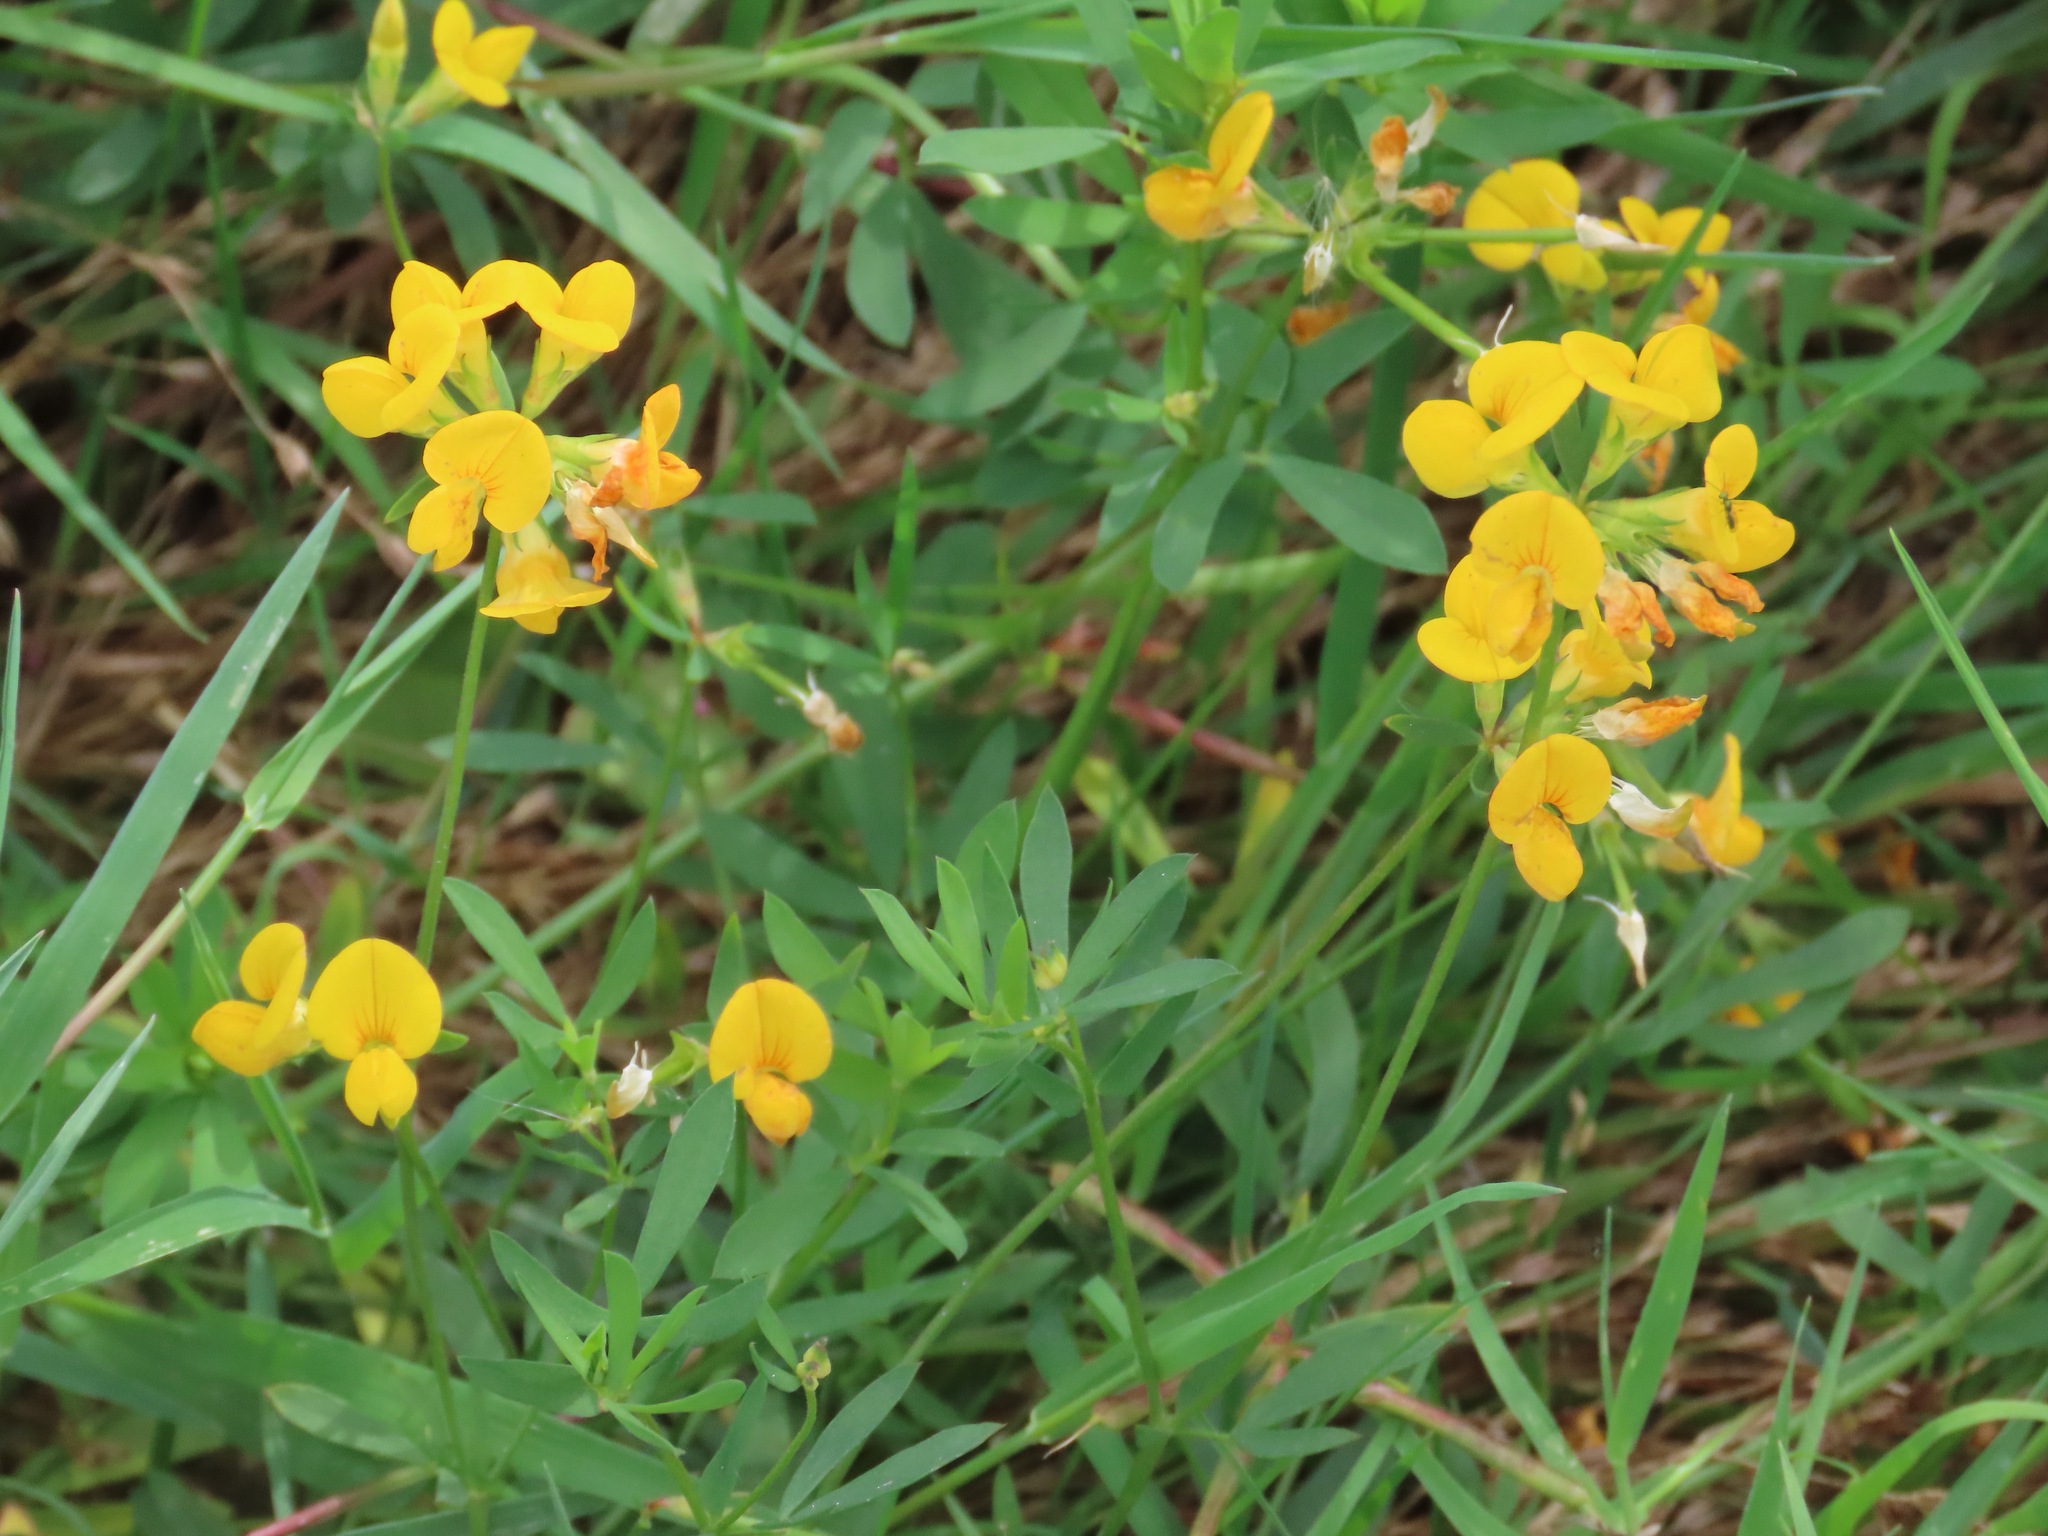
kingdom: Plantae
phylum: Tracheophyta
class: Magnoliopsida
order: Fabales
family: Fabaceae
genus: Lotus
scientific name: Lotus corniculatus
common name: Common bird's-foot-trefoil
